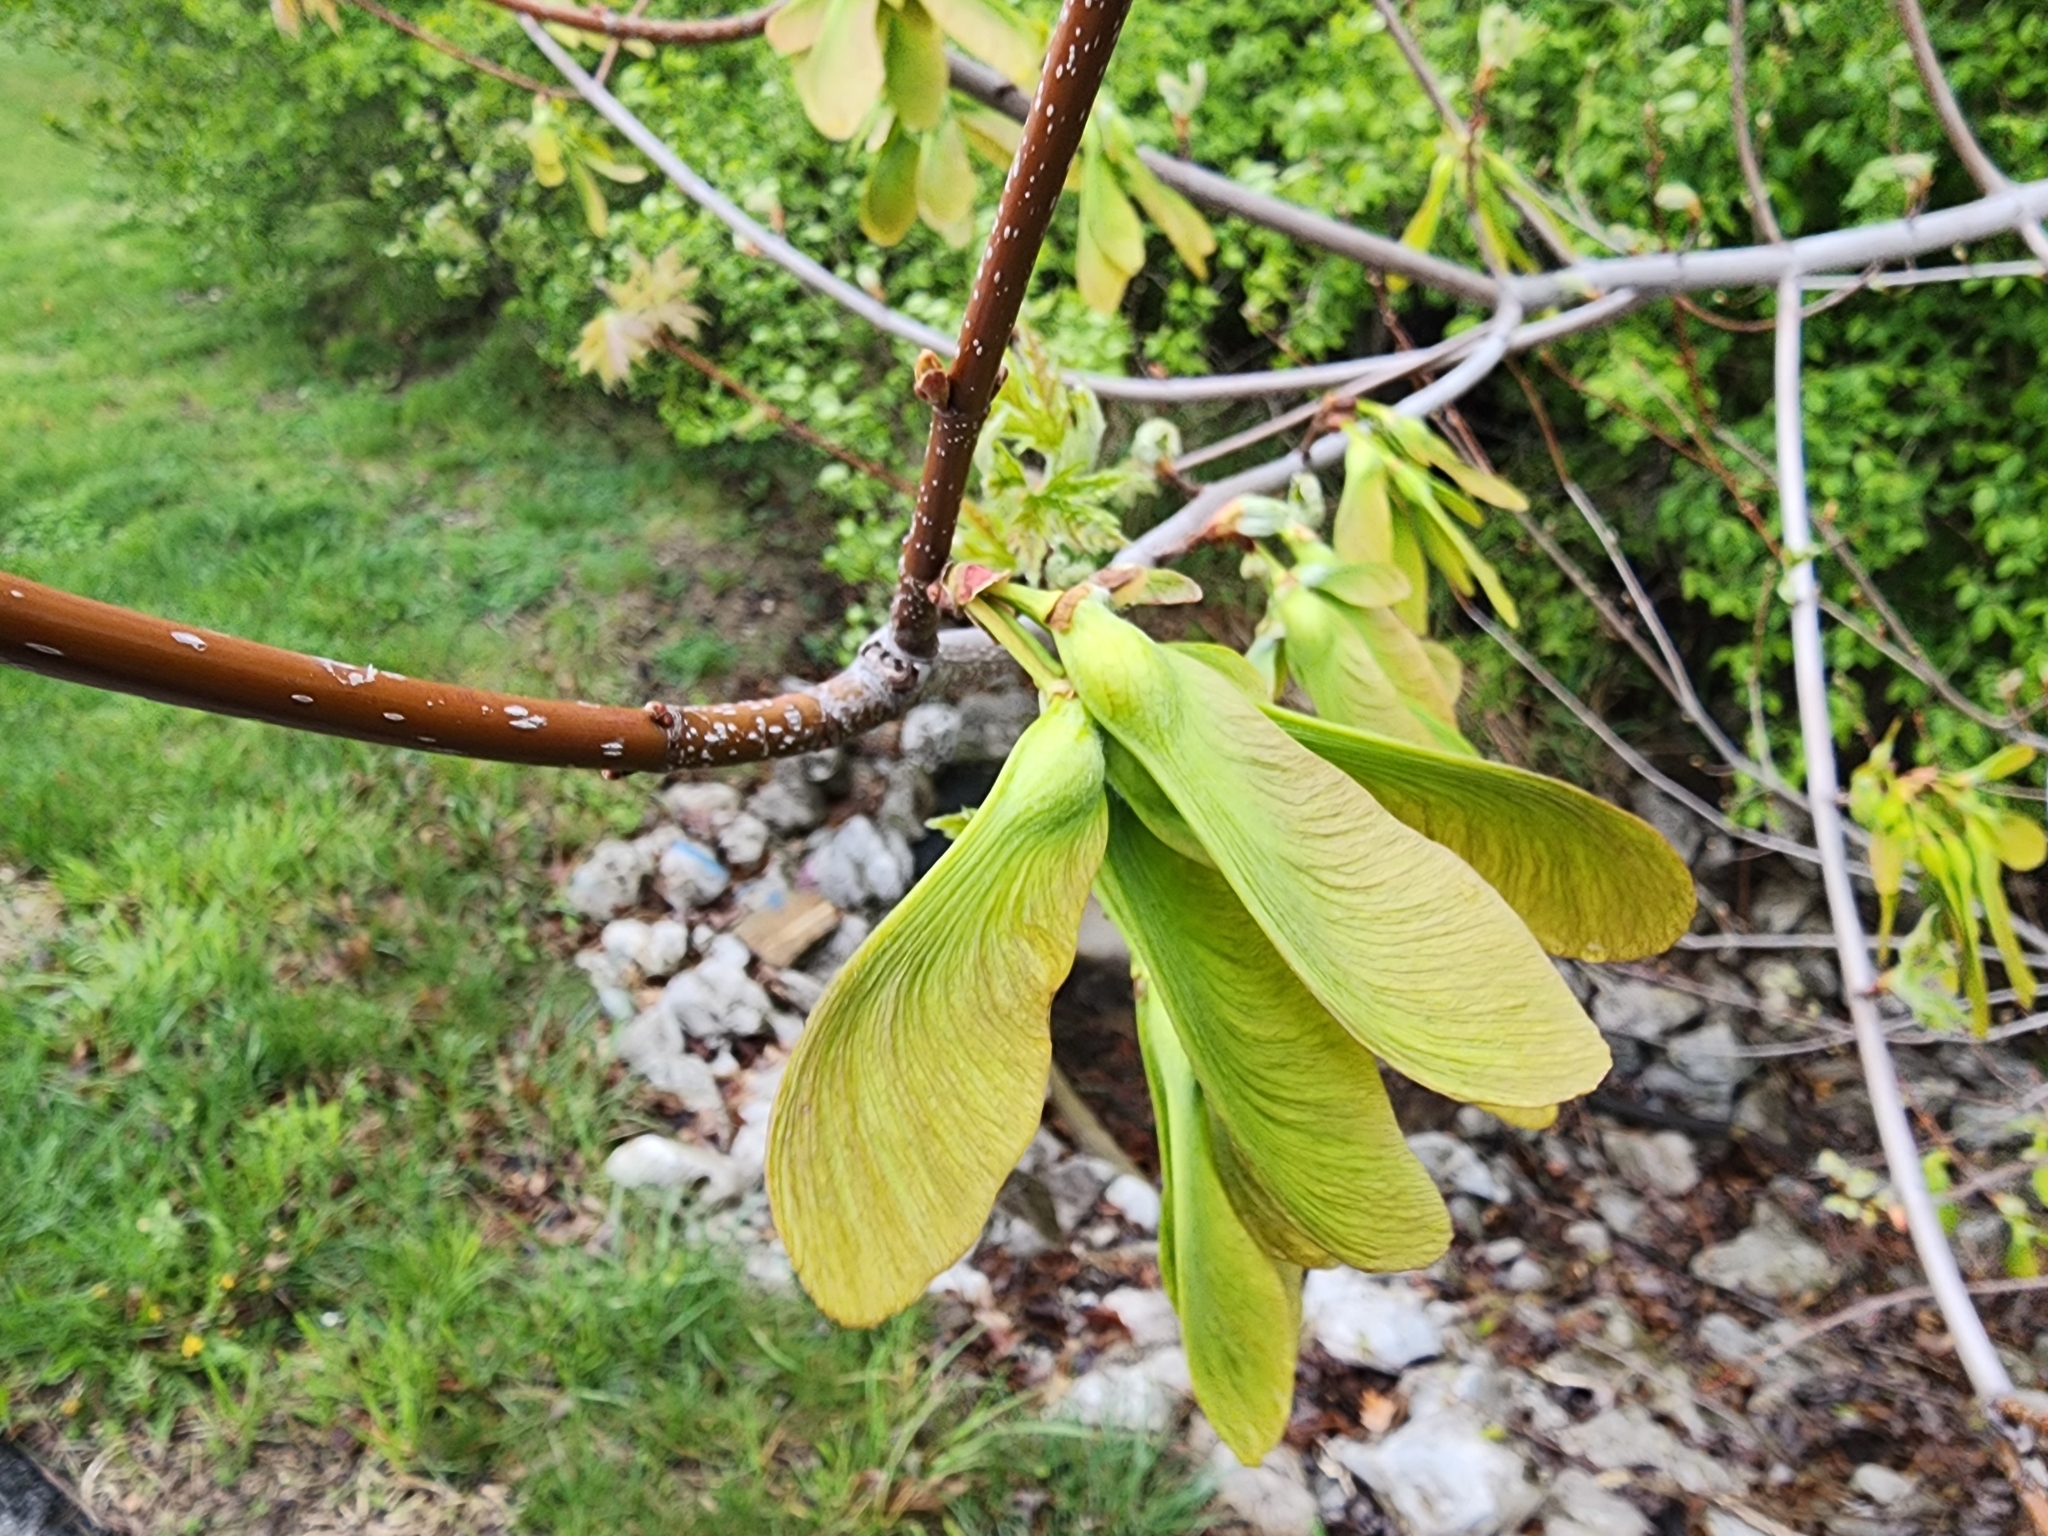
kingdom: Plantae
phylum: Tracheophyta
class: Magnoliopsida
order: Sapindales
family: Sapindaceae
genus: Acer
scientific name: Acer saccharinum
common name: Silver maple
